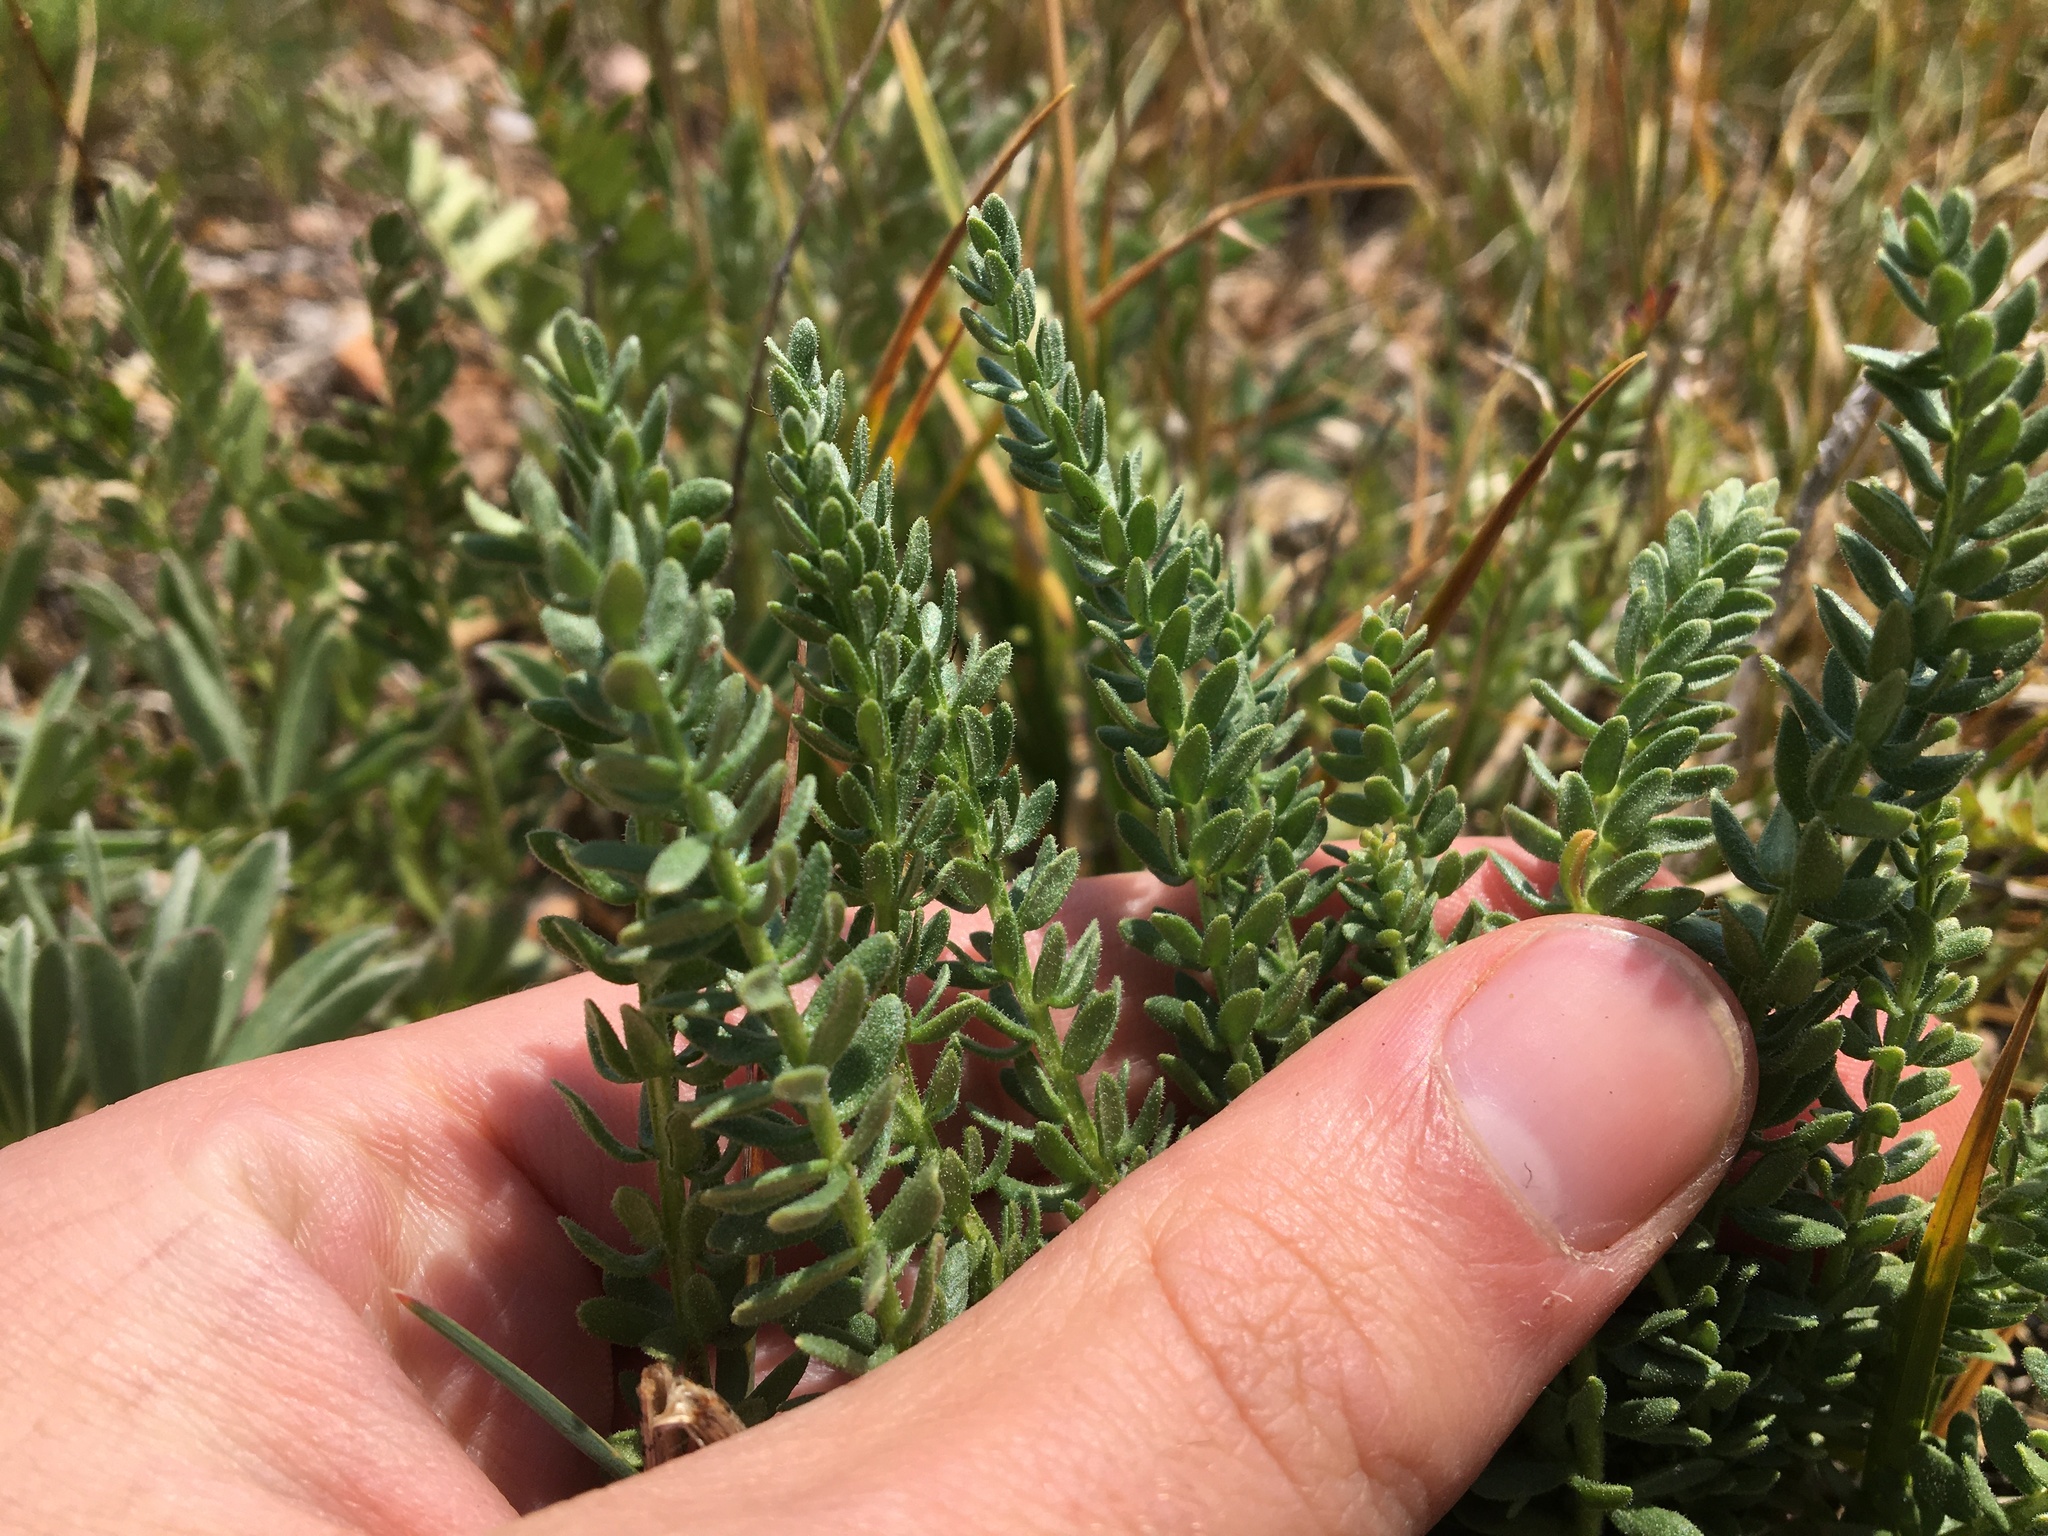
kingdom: Plantae
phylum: Tracheophyta
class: Magnoliopsida
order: Ericales
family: Polemoniaceae
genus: Polemonium
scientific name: Polemonium viscosum
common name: Skunk jacob's-ladder
